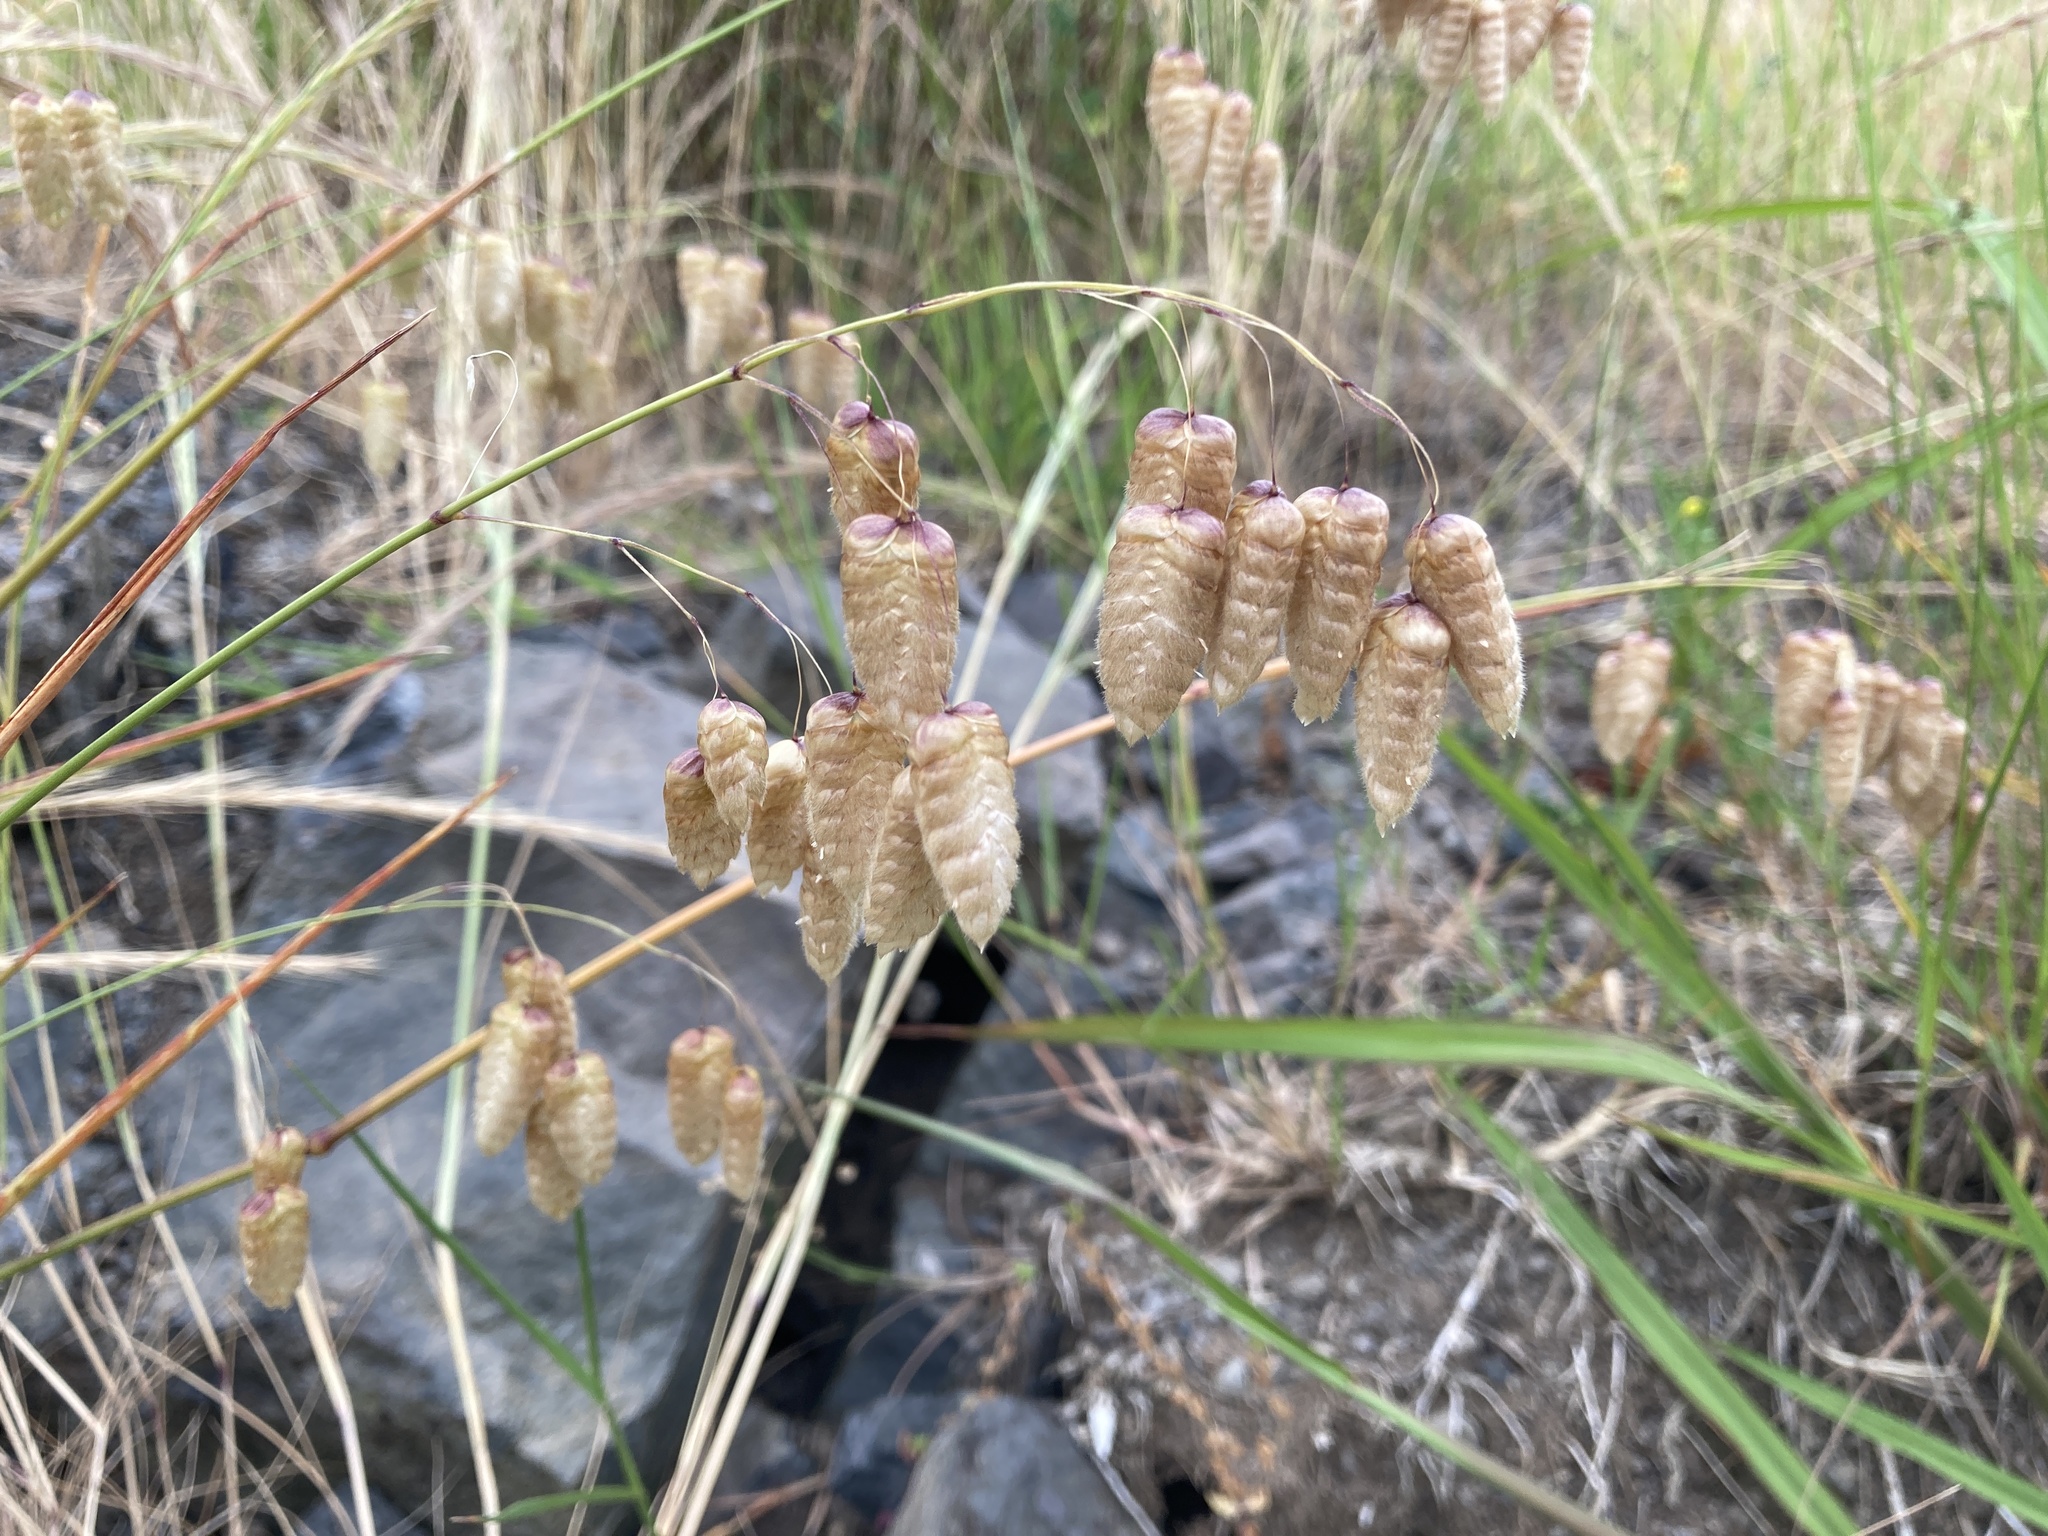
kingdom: Plantae
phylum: Tracheophyta
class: Liliopsida
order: Poales
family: Poaceae
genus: Briza
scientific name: Briza maxima
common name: Big quakinggrass
